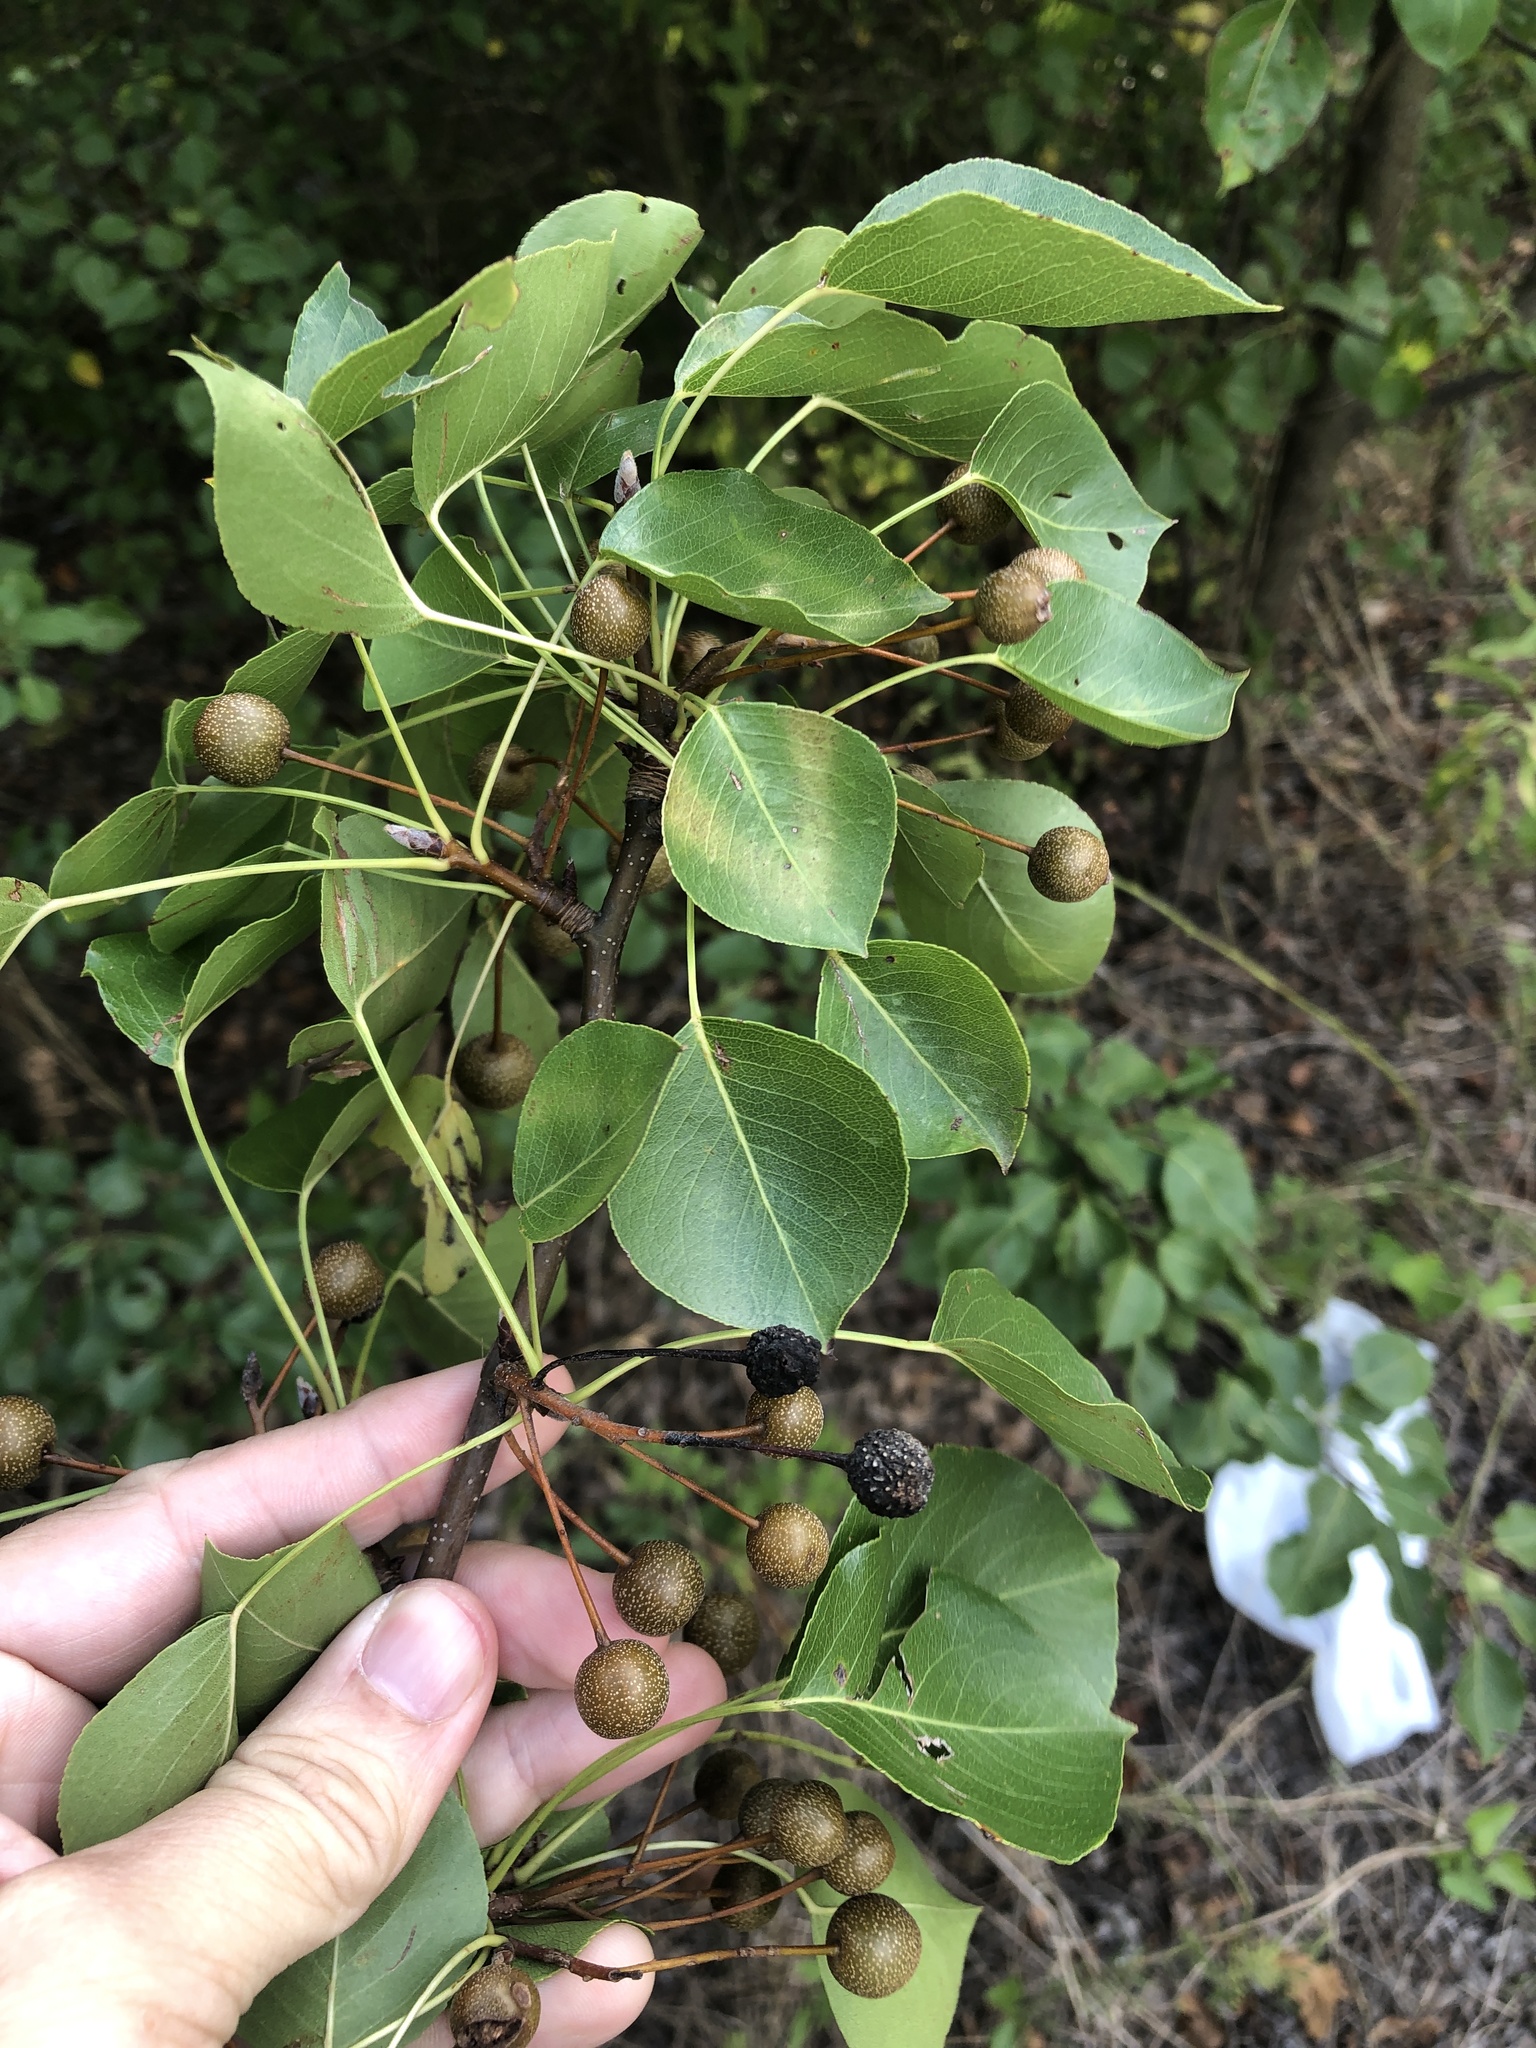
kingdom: Plantae
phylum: Tracheophyta
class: Magnoliopsida
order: Rosales
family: Rosaceae
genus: Pyrus
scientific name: Pyrus calleryana
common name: Callery pear
